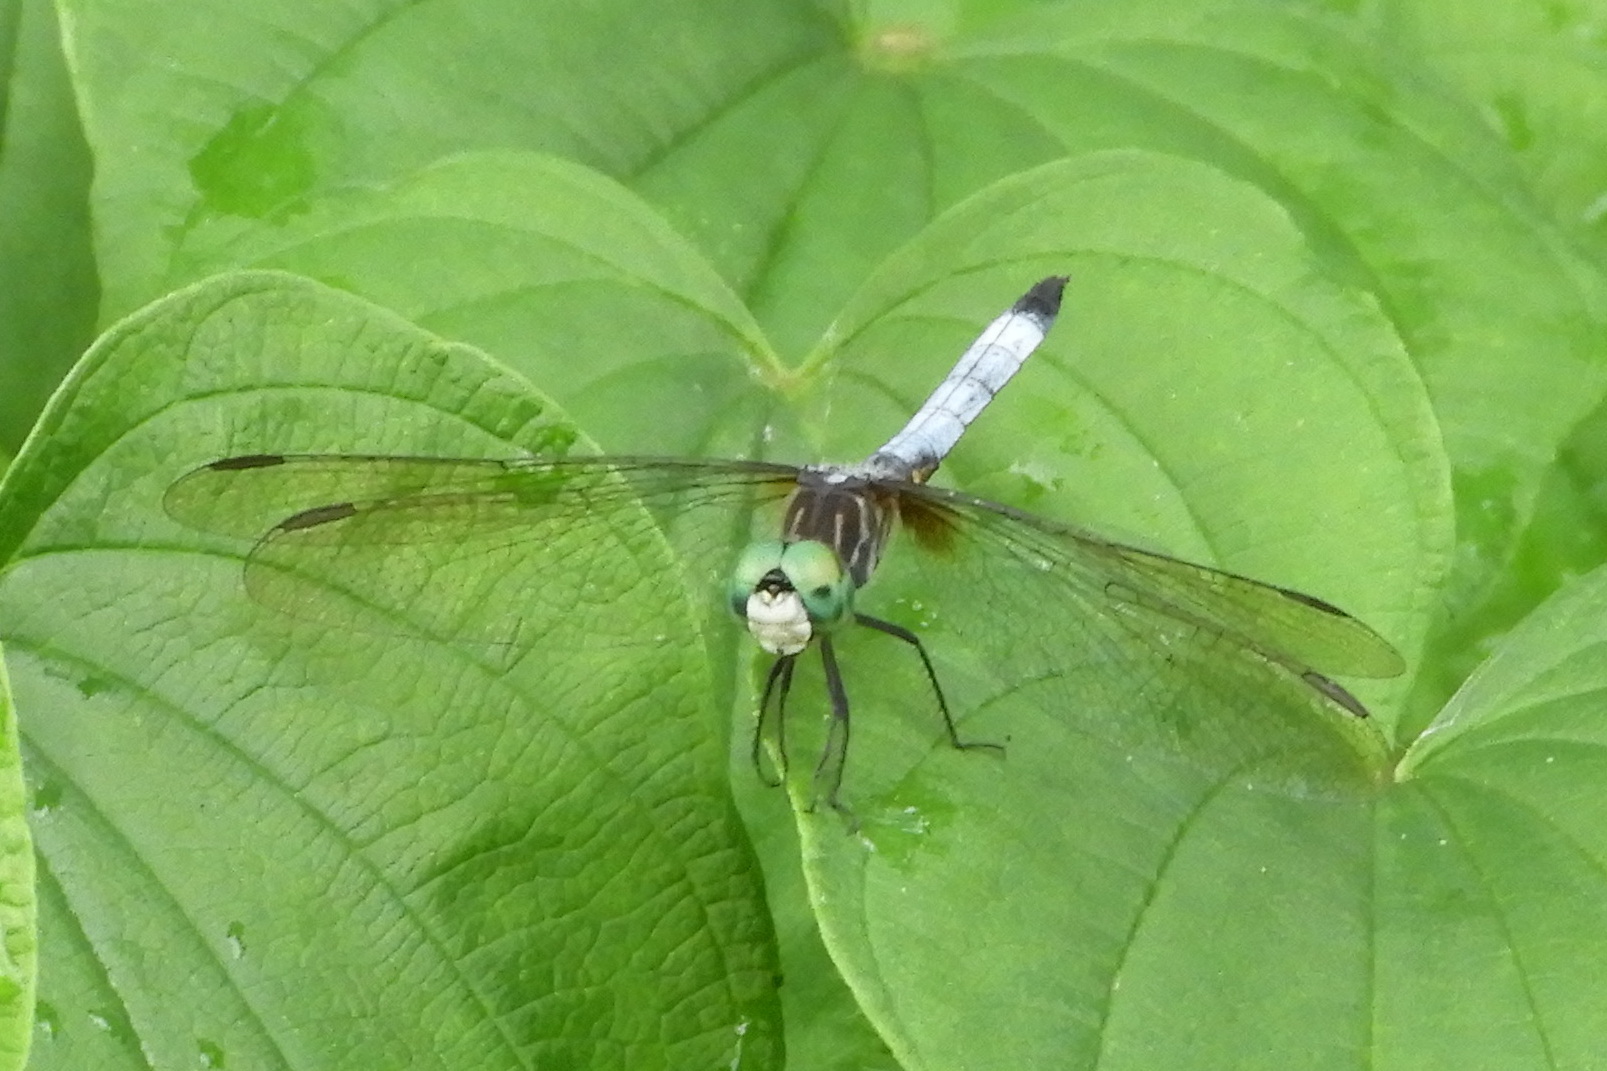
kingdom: Animalia
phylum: Arthropoda
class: Insecta
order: Odonata
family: Libellulidae
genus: Pachydiplax
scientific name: Pachydiplax longipennis
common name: Blue dasher
